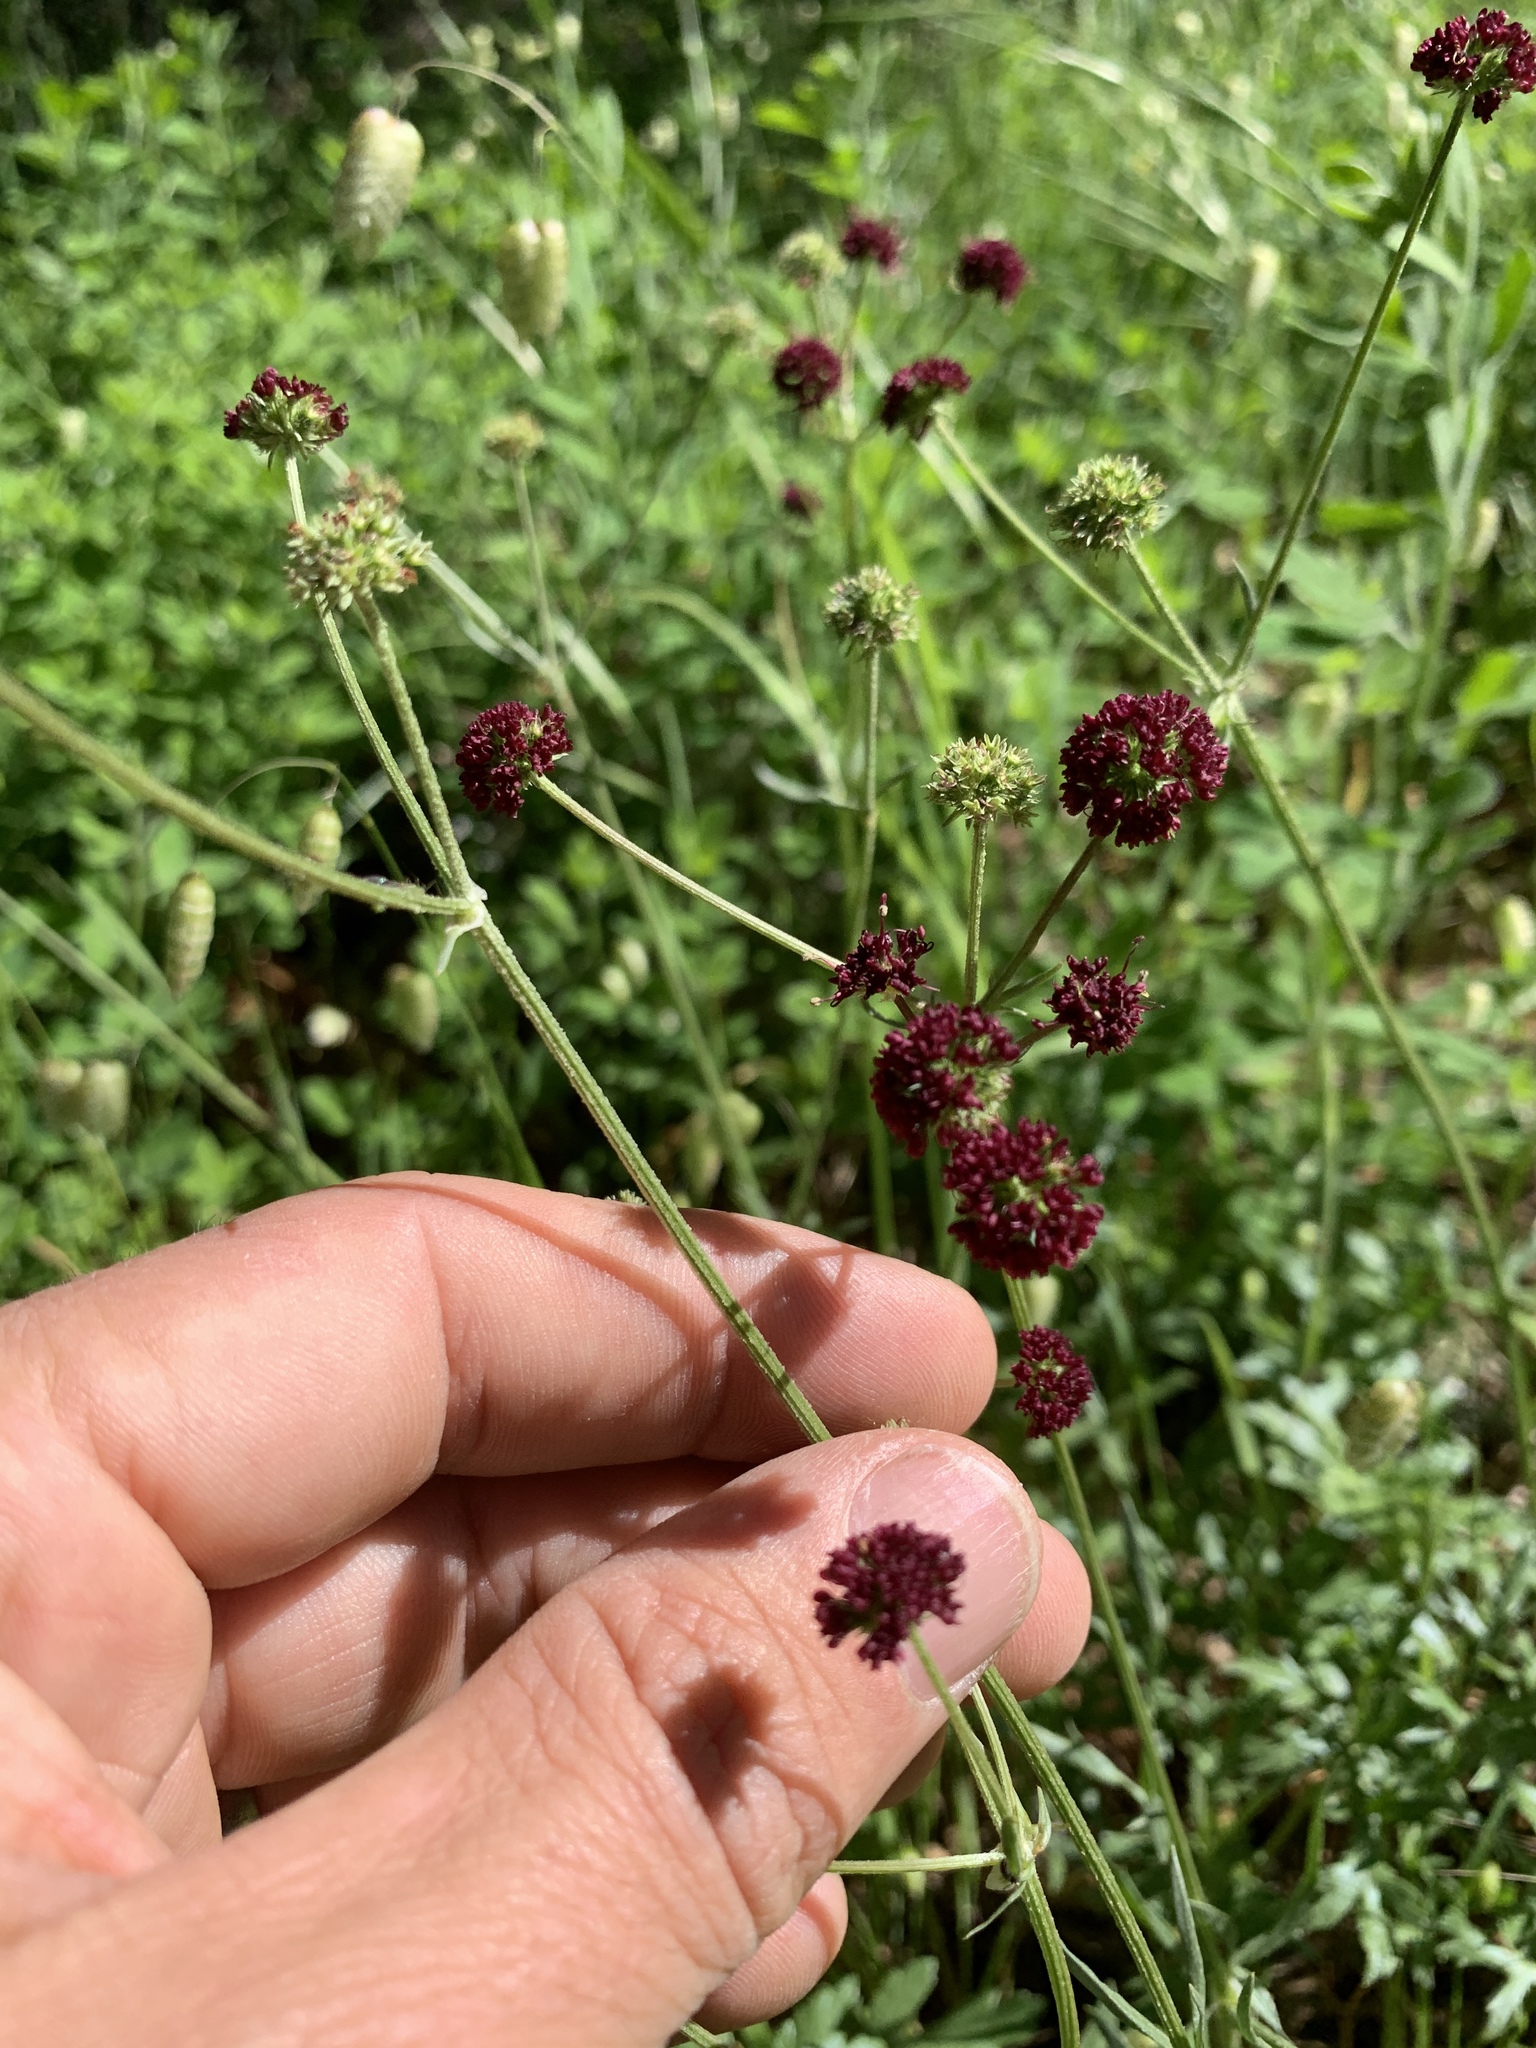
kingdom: Plantae
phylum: Tracheophyta
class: Magnoliopsida
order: Apiales
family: Apiaceae
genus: Sanicula
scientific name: Sanicula bipinnatifida
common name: Shoe-buttons
